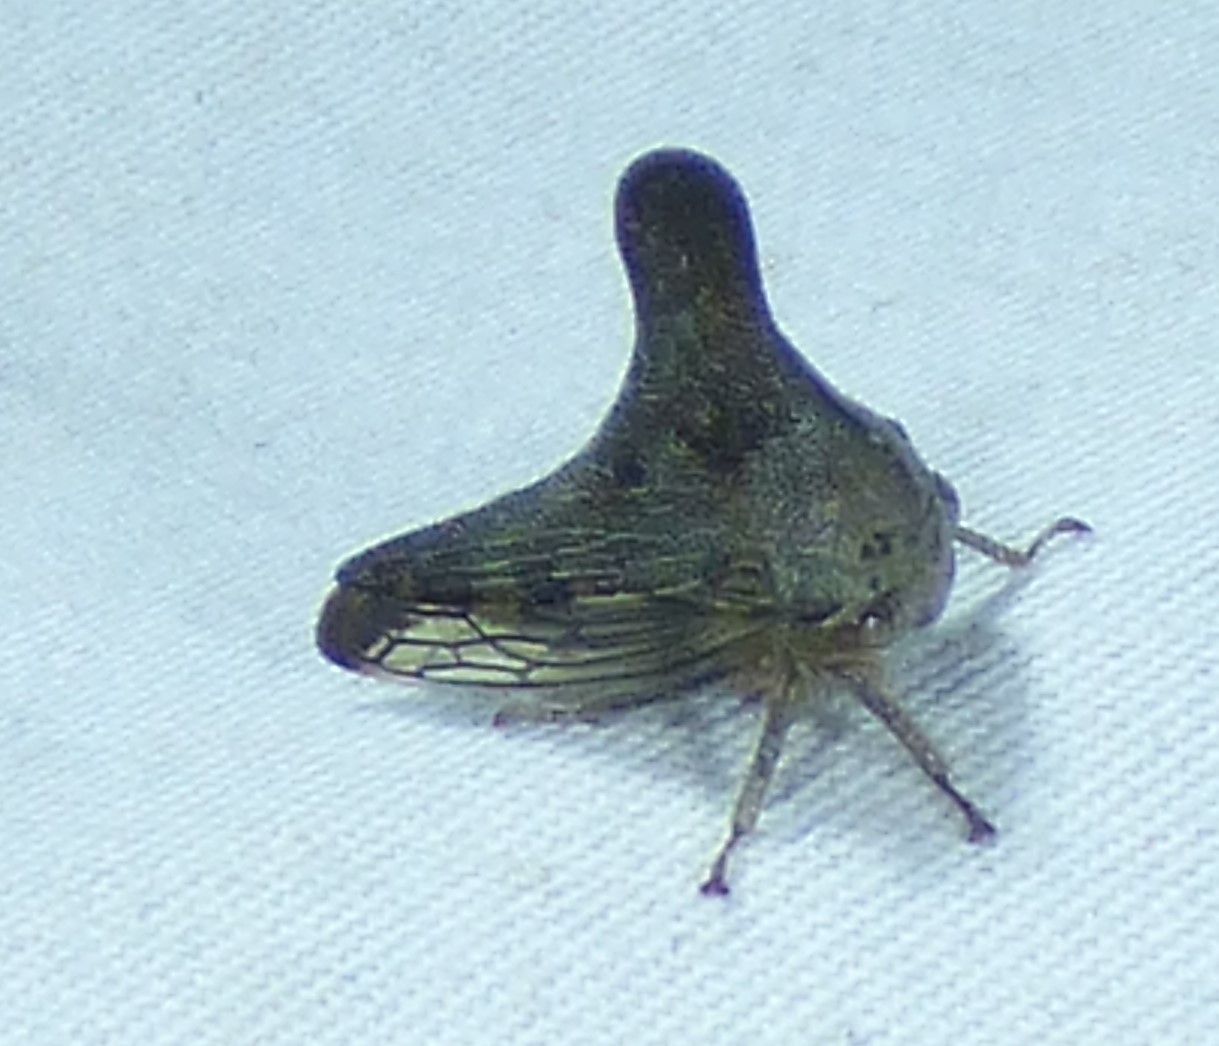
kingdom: Animalia
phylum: Arthropoda
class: Insecta
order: Hemiptera
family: Membracidae
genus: Glossonotus
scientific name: Glossonotus acuminata
